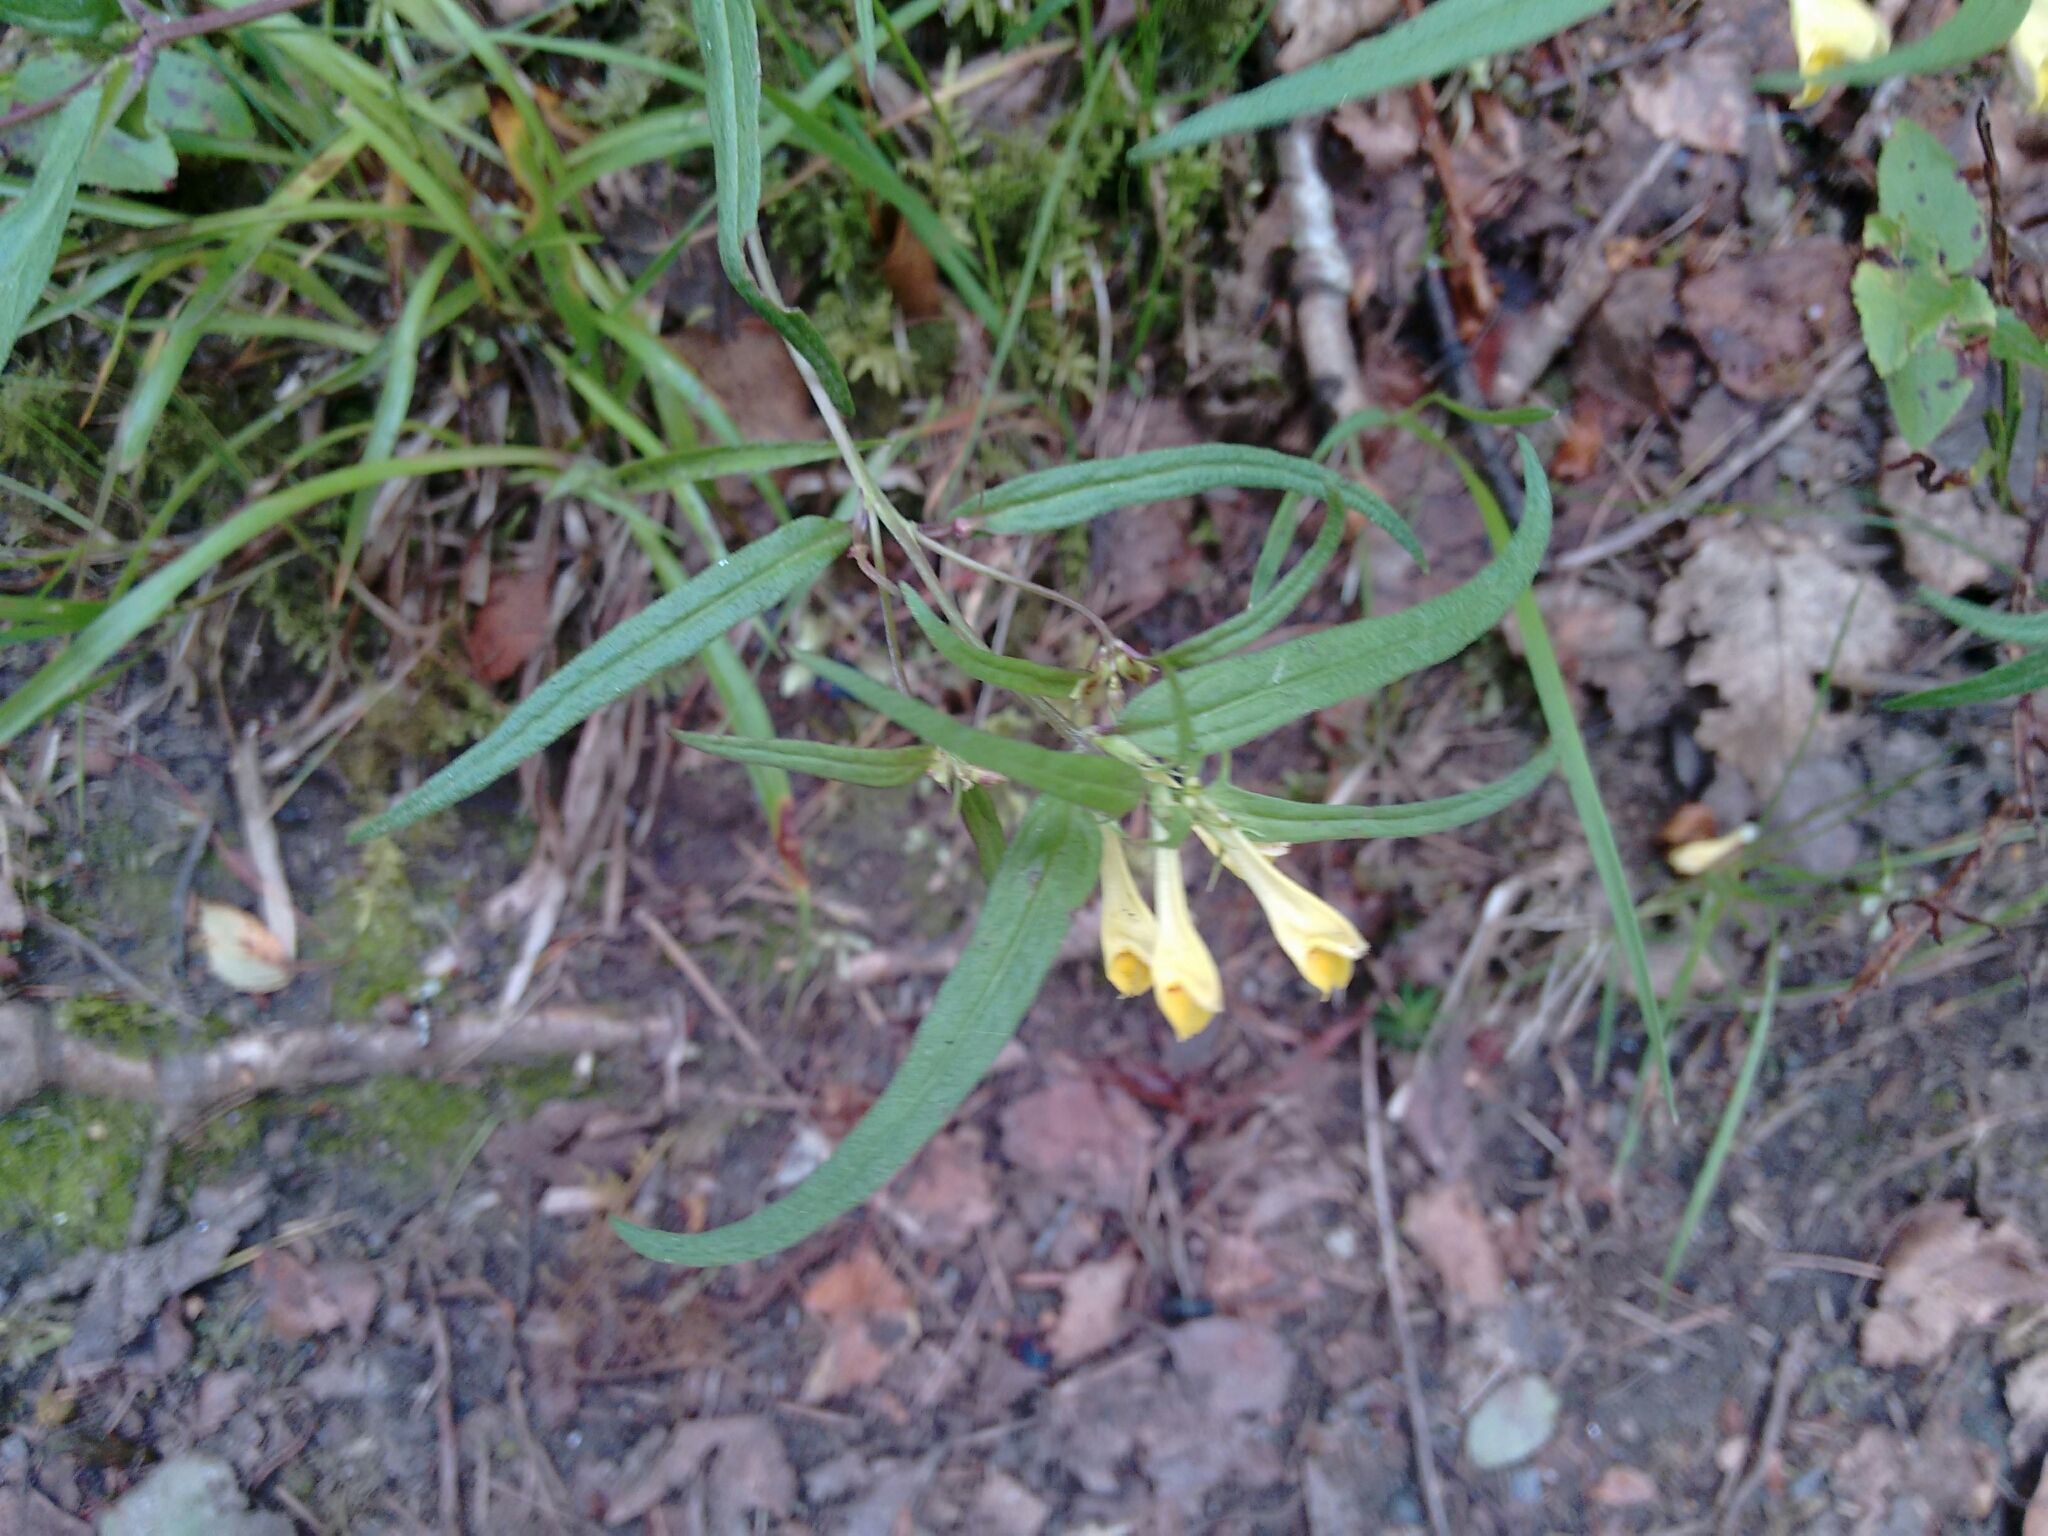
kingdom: Plantae
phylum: Tracheophyta
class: Magnoliopsida
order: Lamiales
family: Orobanchaceae
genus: Melampyrum
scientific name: Melampyrum pratense
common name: Common cow-wheat
